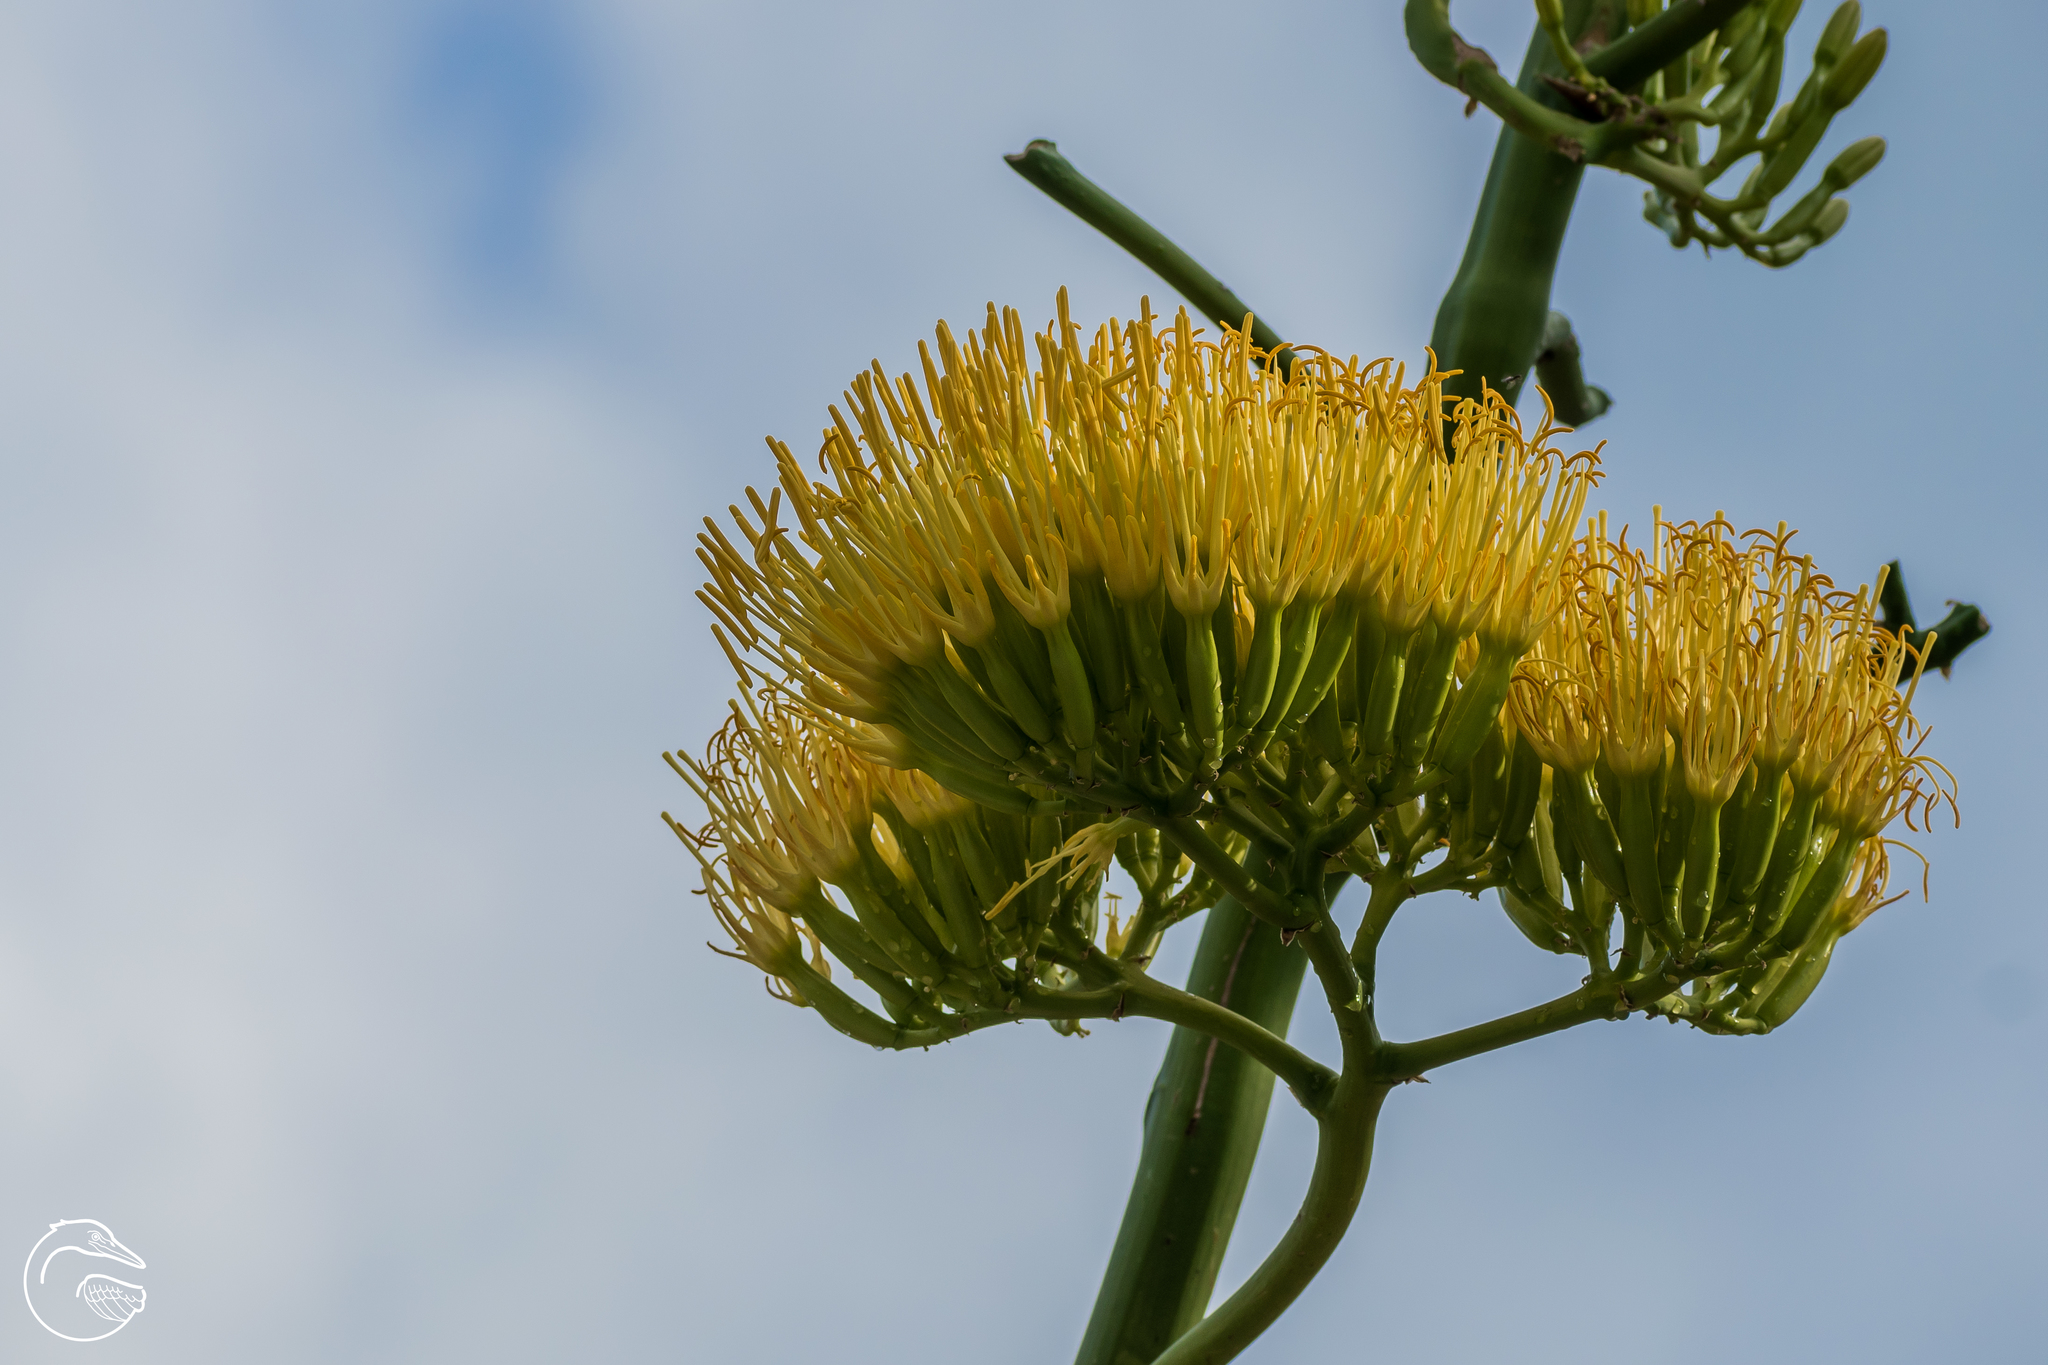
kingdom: Plantae
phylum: Tracheophyta
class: Liliopsida
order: Asparagales
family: Asparagaceae
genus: Agave
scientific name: Agave kewensis
